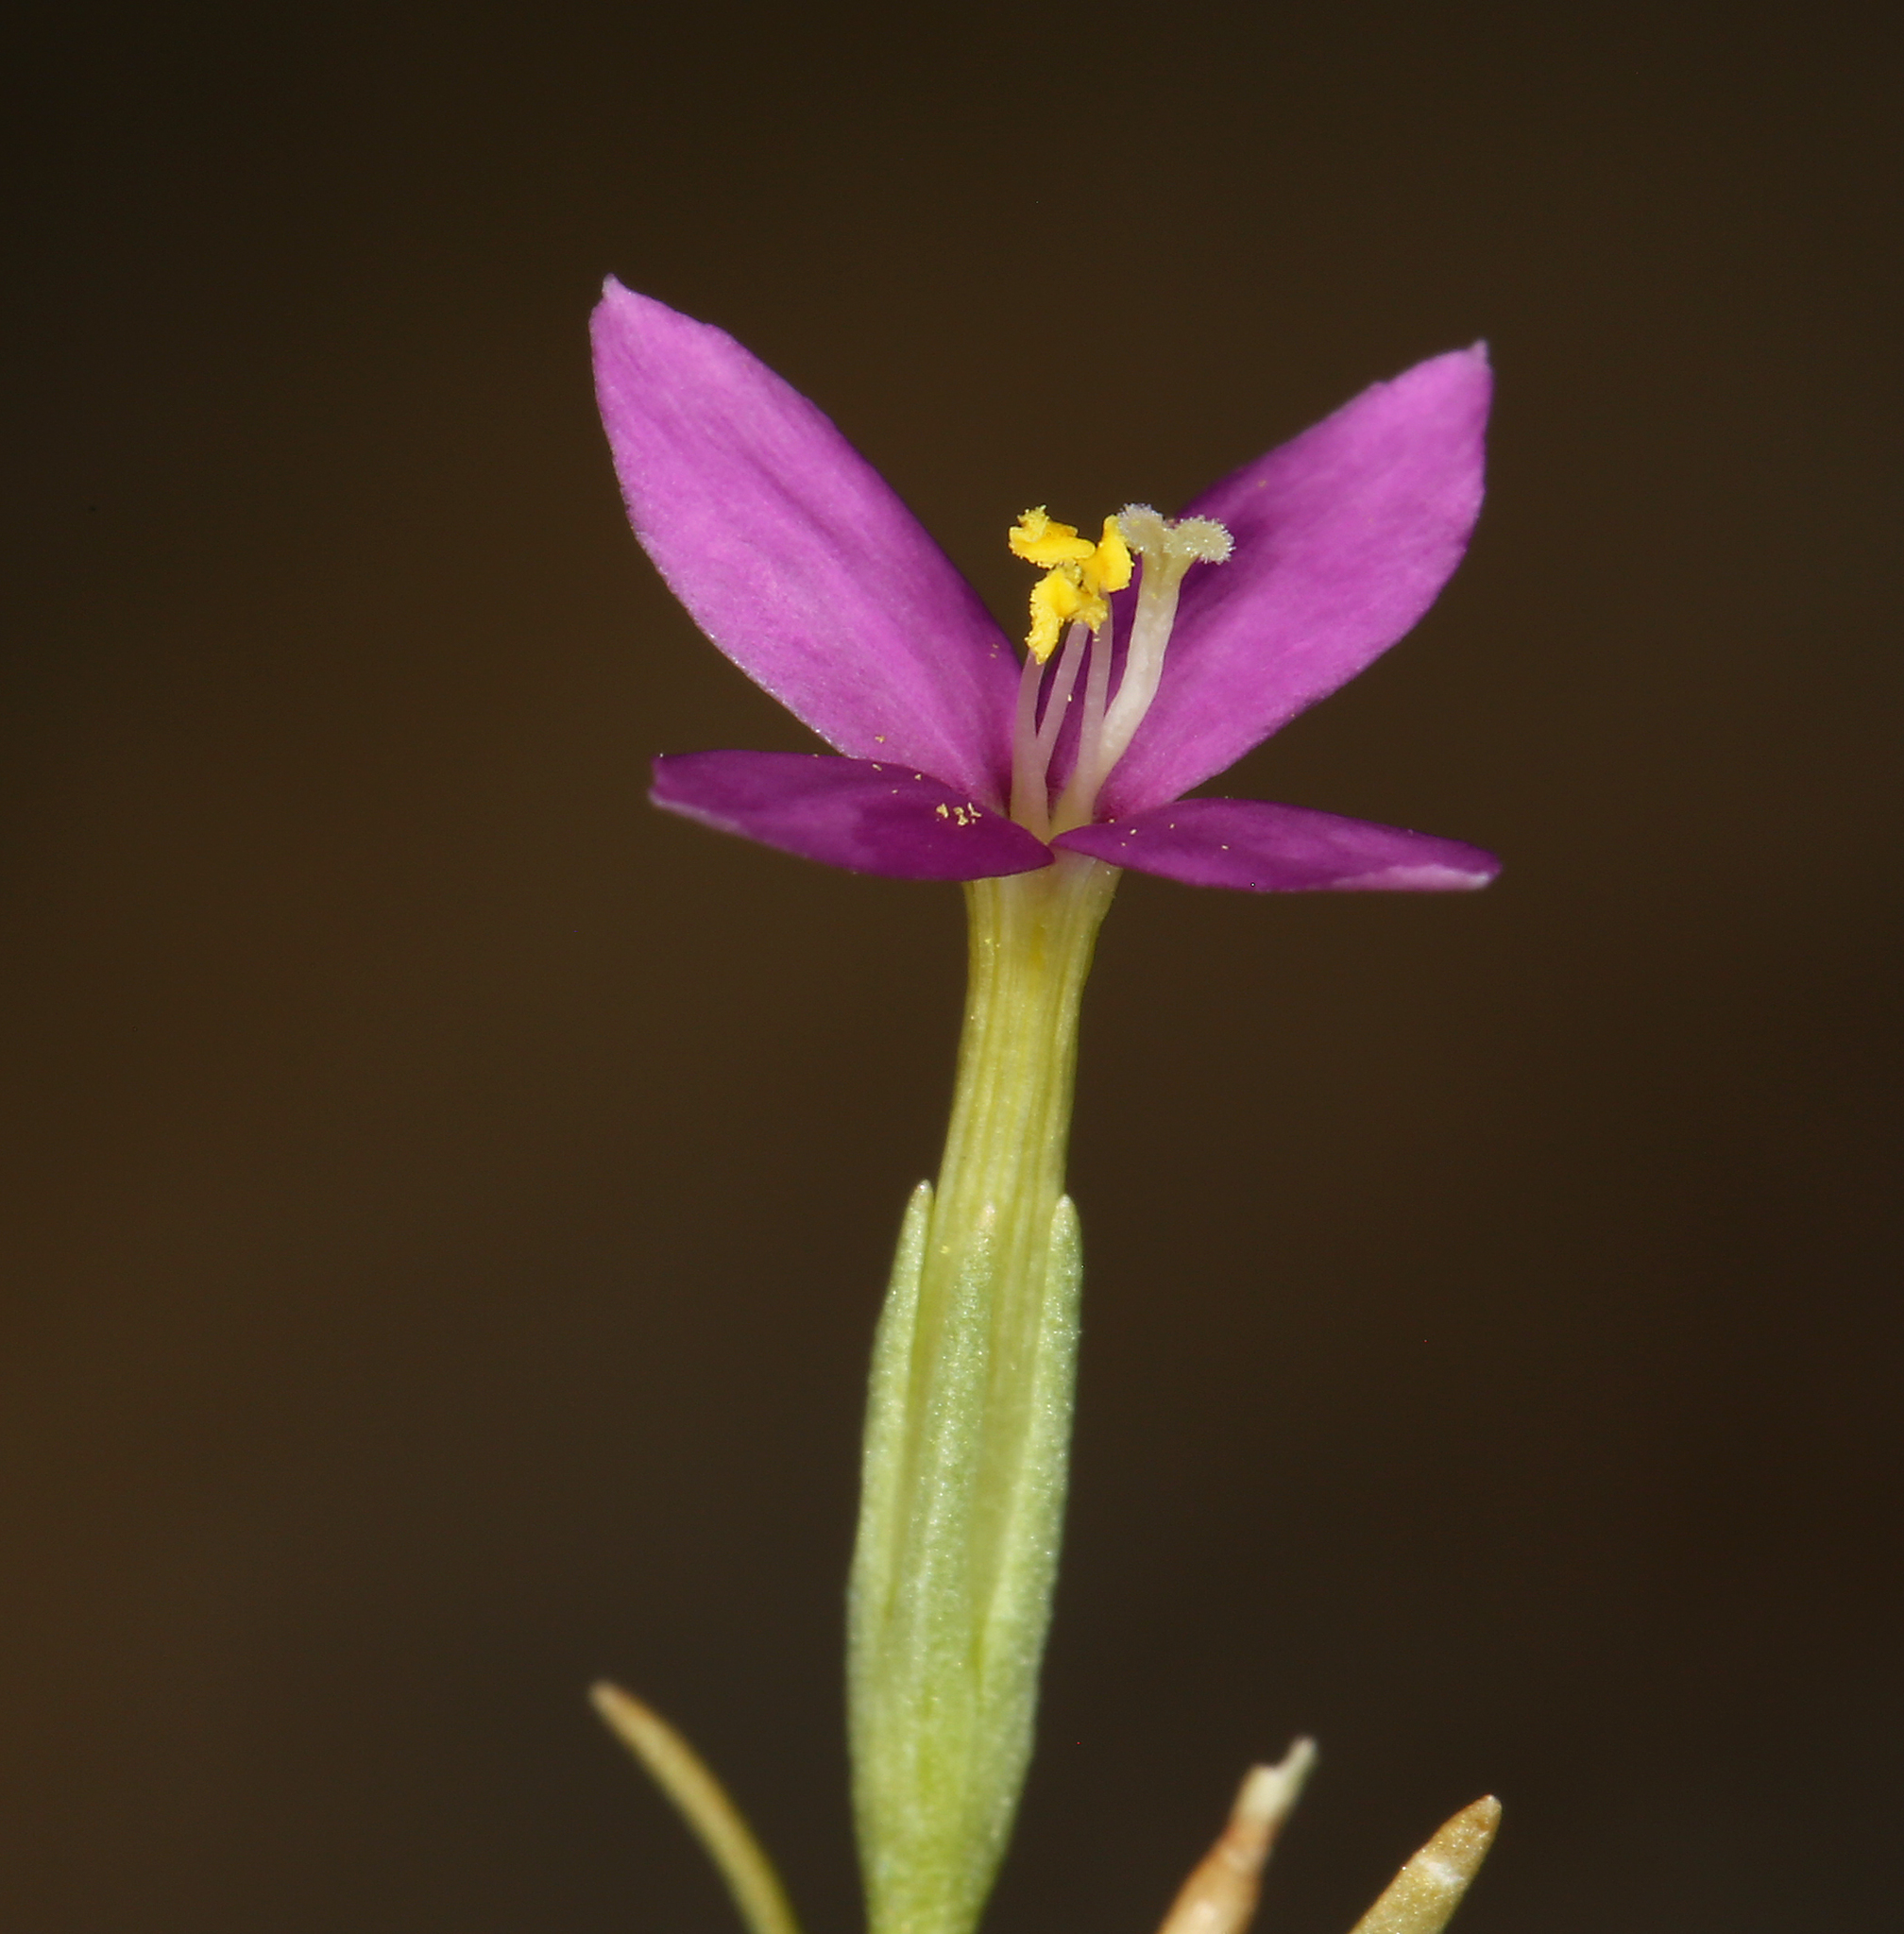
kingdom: Plantae
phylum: Tracheophyta
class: Magnoliopsida
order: Gentianales
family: Gentianaceae
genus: Zeltnera
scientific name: Zeltnera exaltata
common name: Great basin centaury
